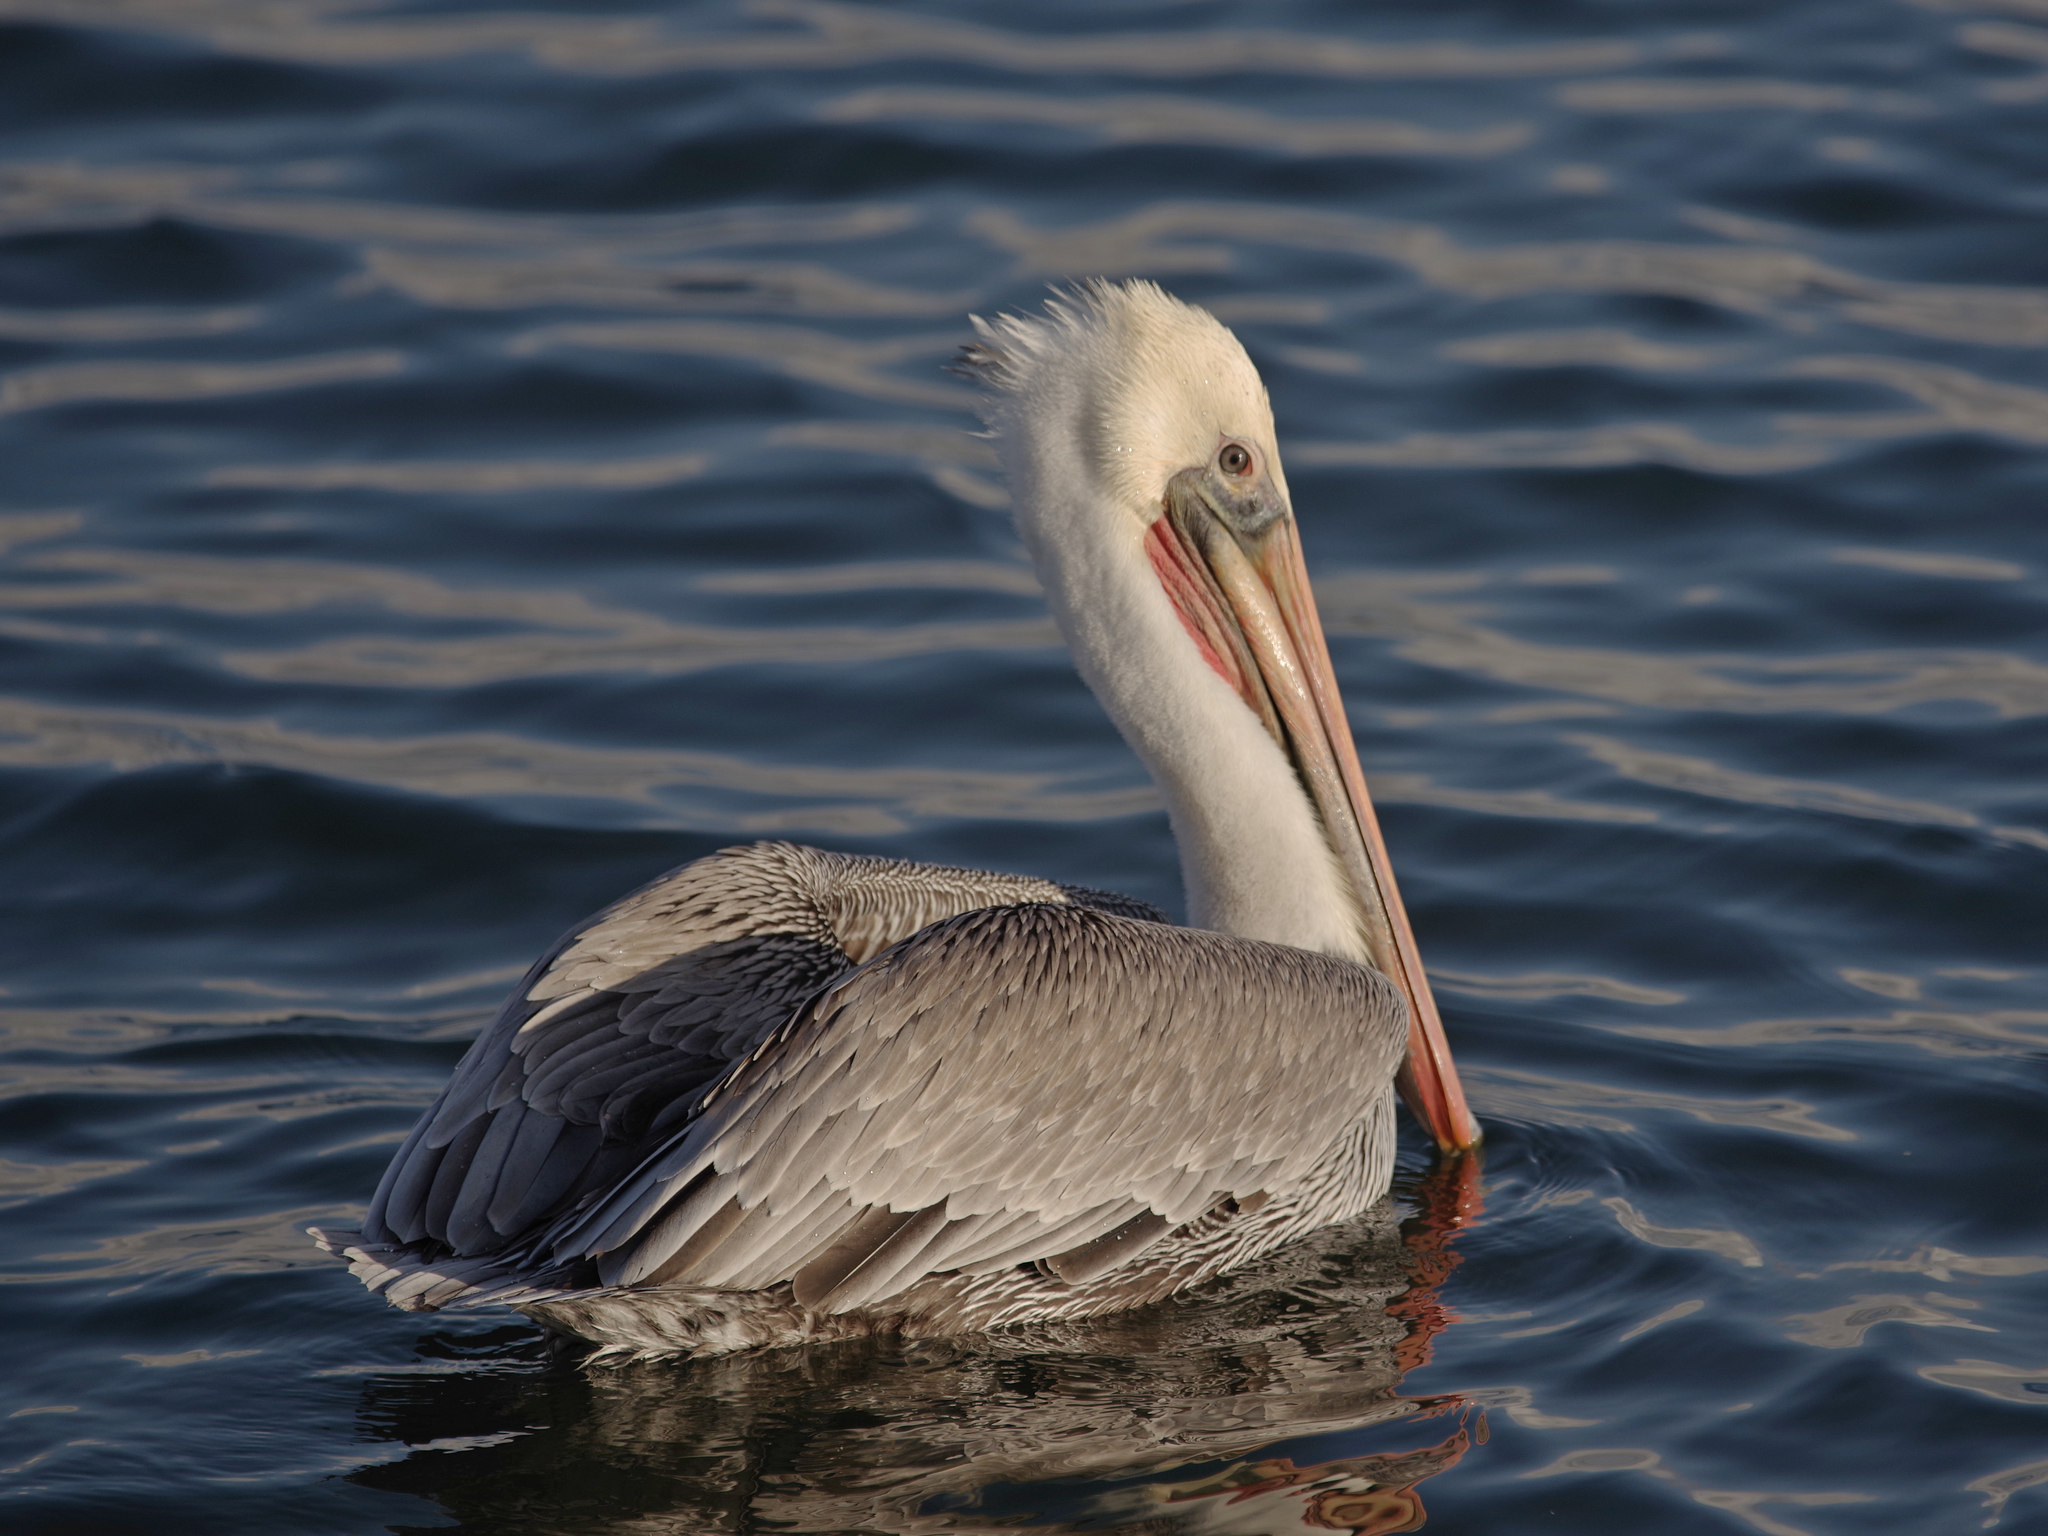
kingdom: Animalia
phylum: Chordata
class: Aves
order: Pelecaniformes
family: Pelecanidae
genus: Pelecanus
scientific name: Pelecanus occidentalis
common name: Brown pelican
